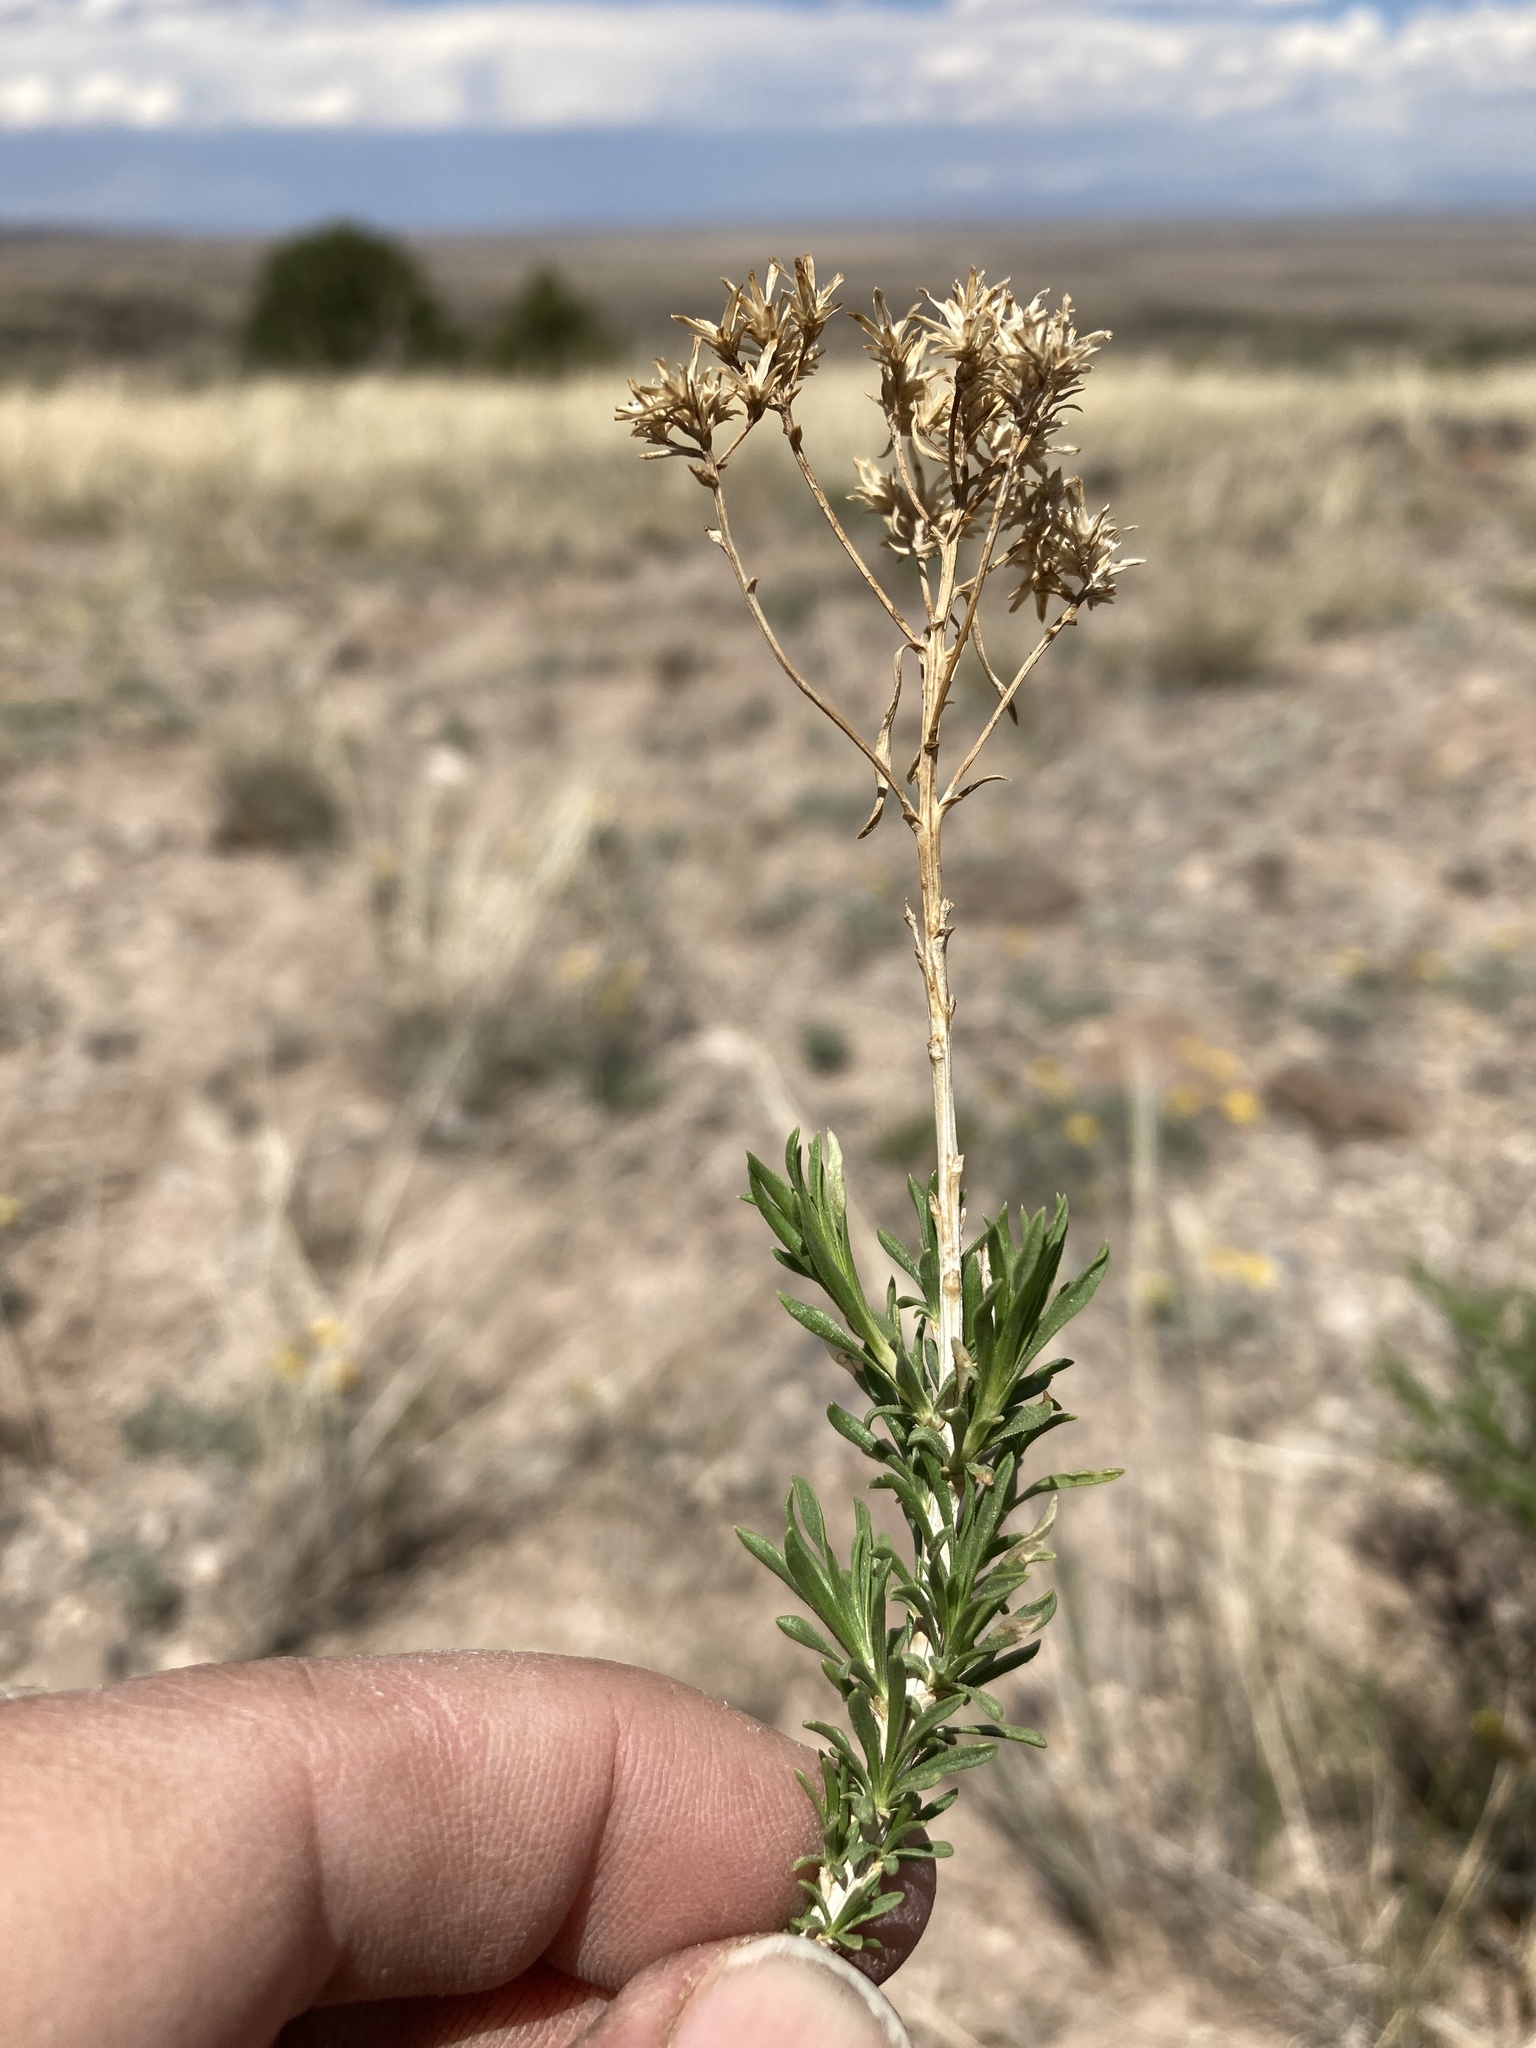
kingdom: Plantae
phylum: Tracheophyta
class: Magnoliopsida
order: Asterales
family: Asteraceae
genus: Chrysothamnus
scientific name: Chrysothamnus viscidiflorus
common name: Yellow rabbitbrush
